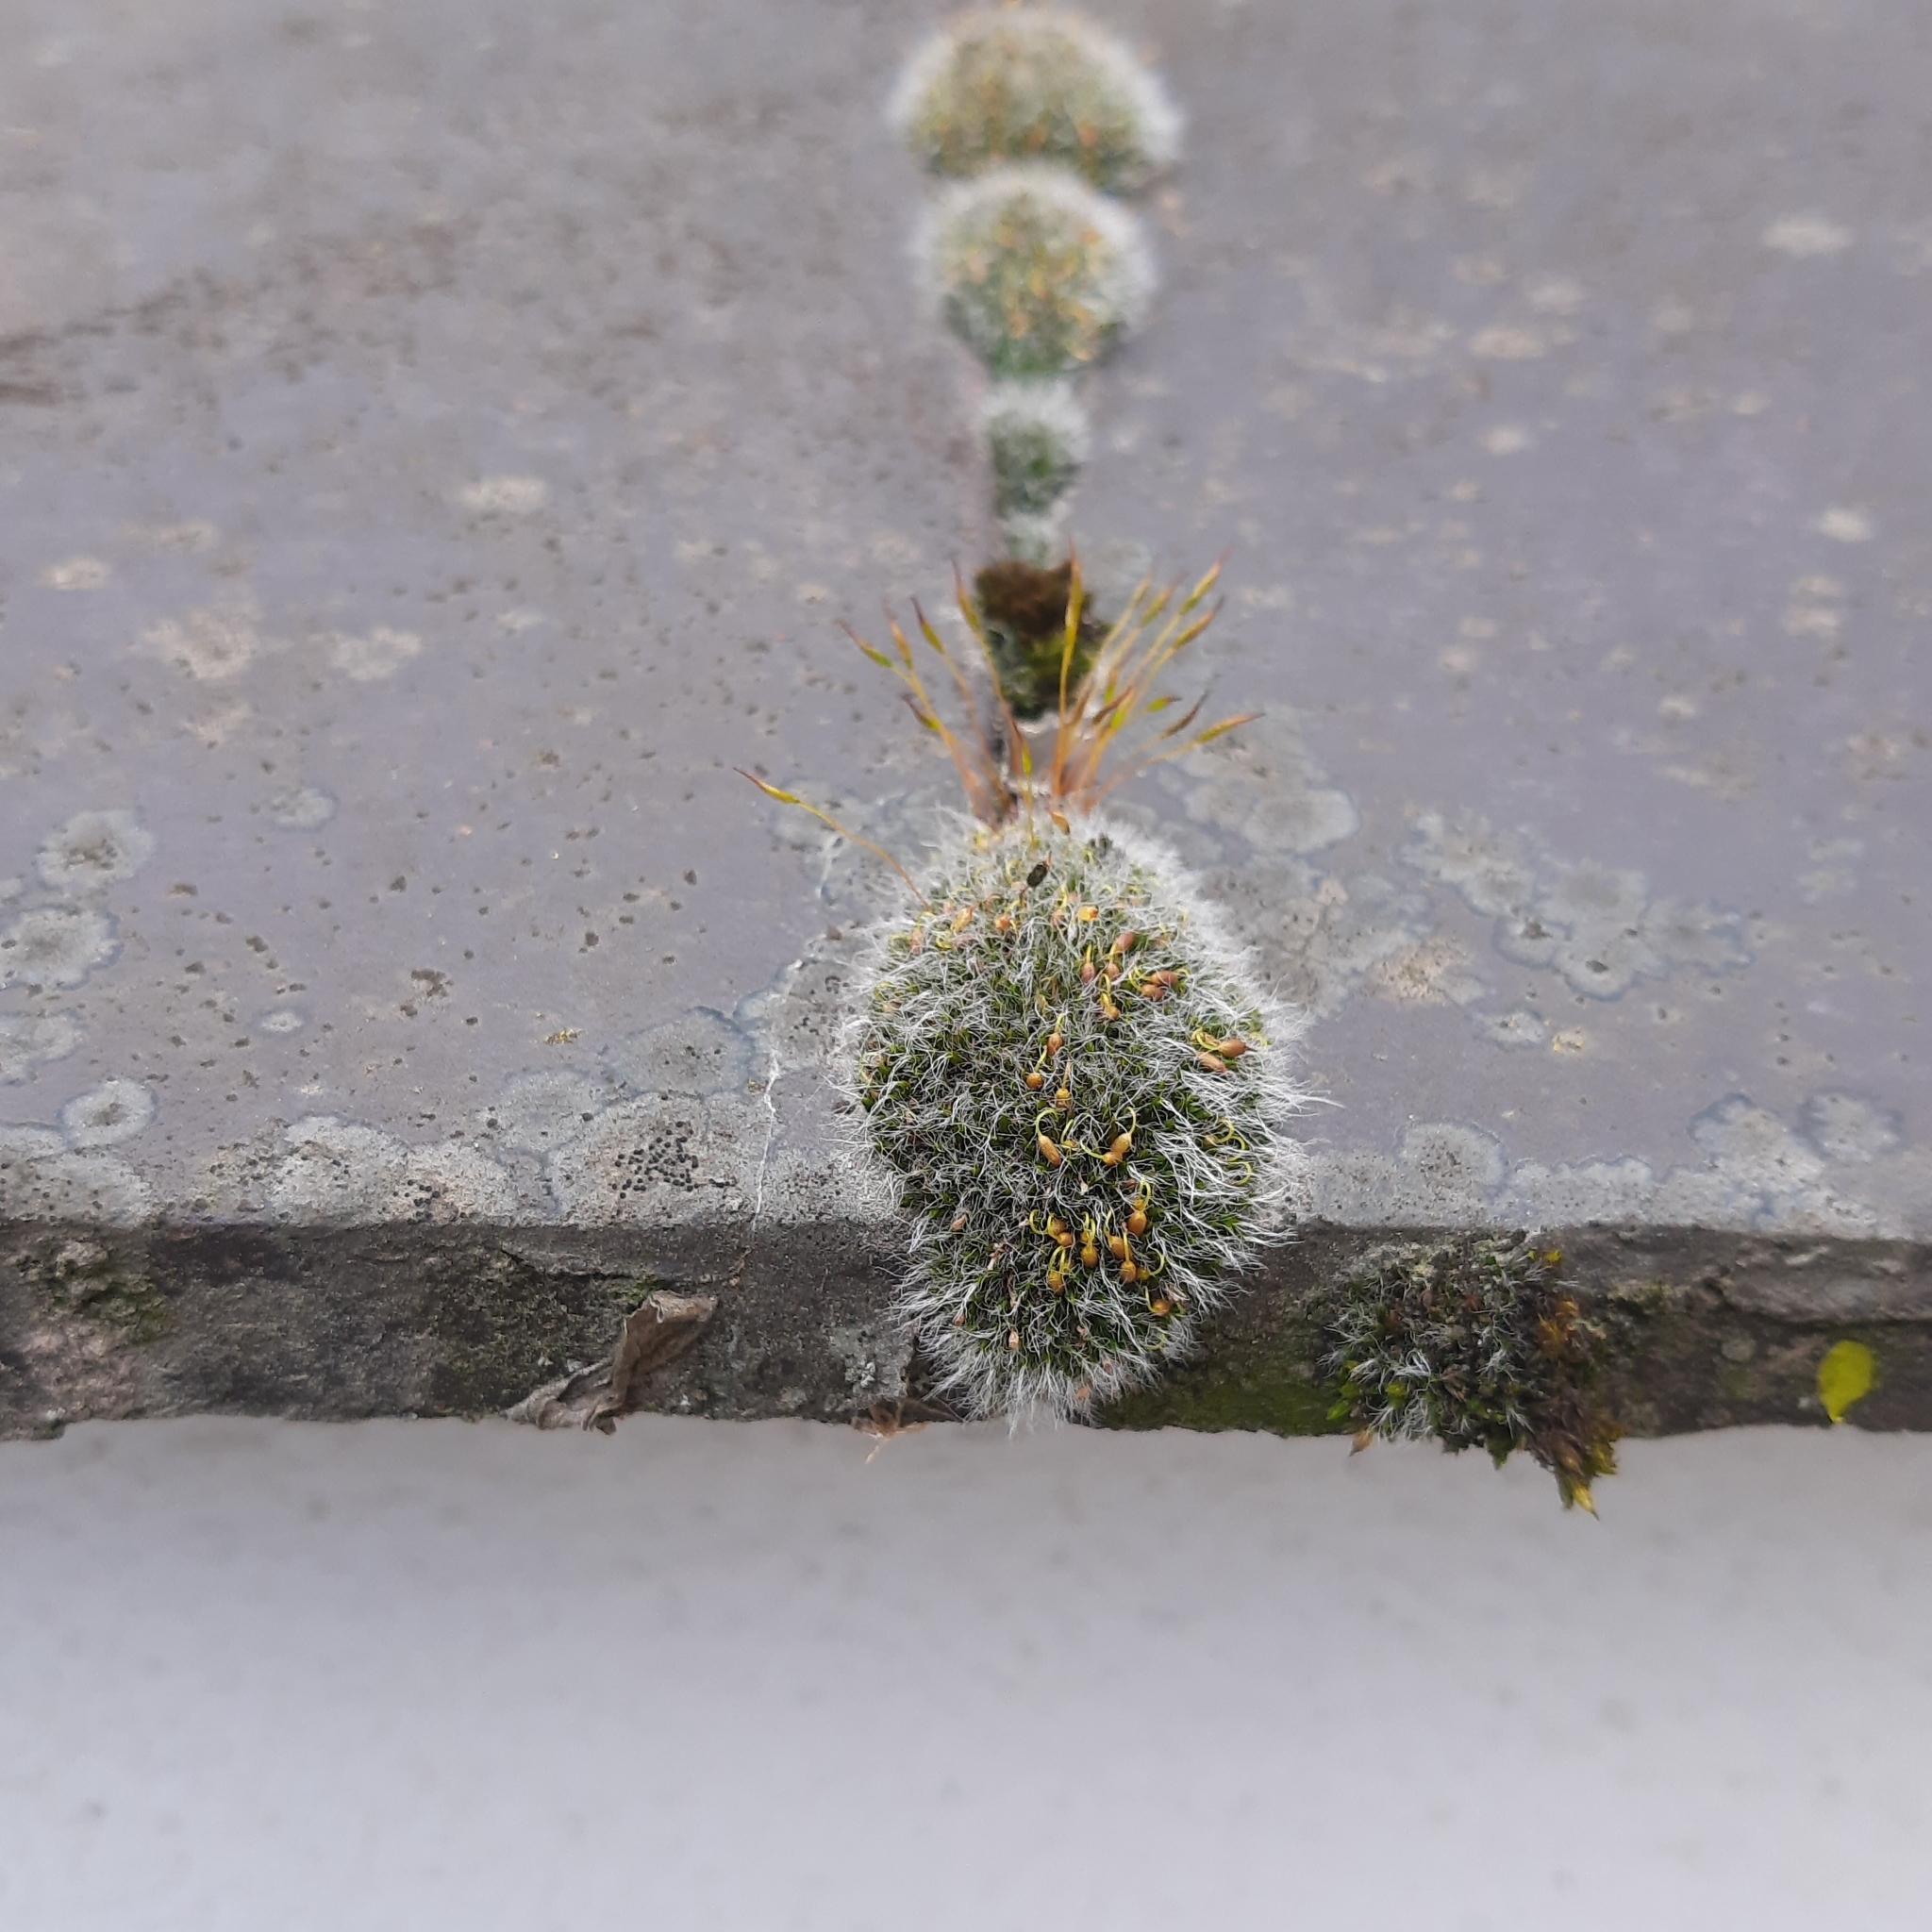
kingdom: Plantae
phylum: Bryophyta
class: Bryopsida
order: Grimmiales
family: Grimmiaceae
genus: Grimmia
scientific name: Grimmia pulvinata
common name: Grey-cushioned grimmia
